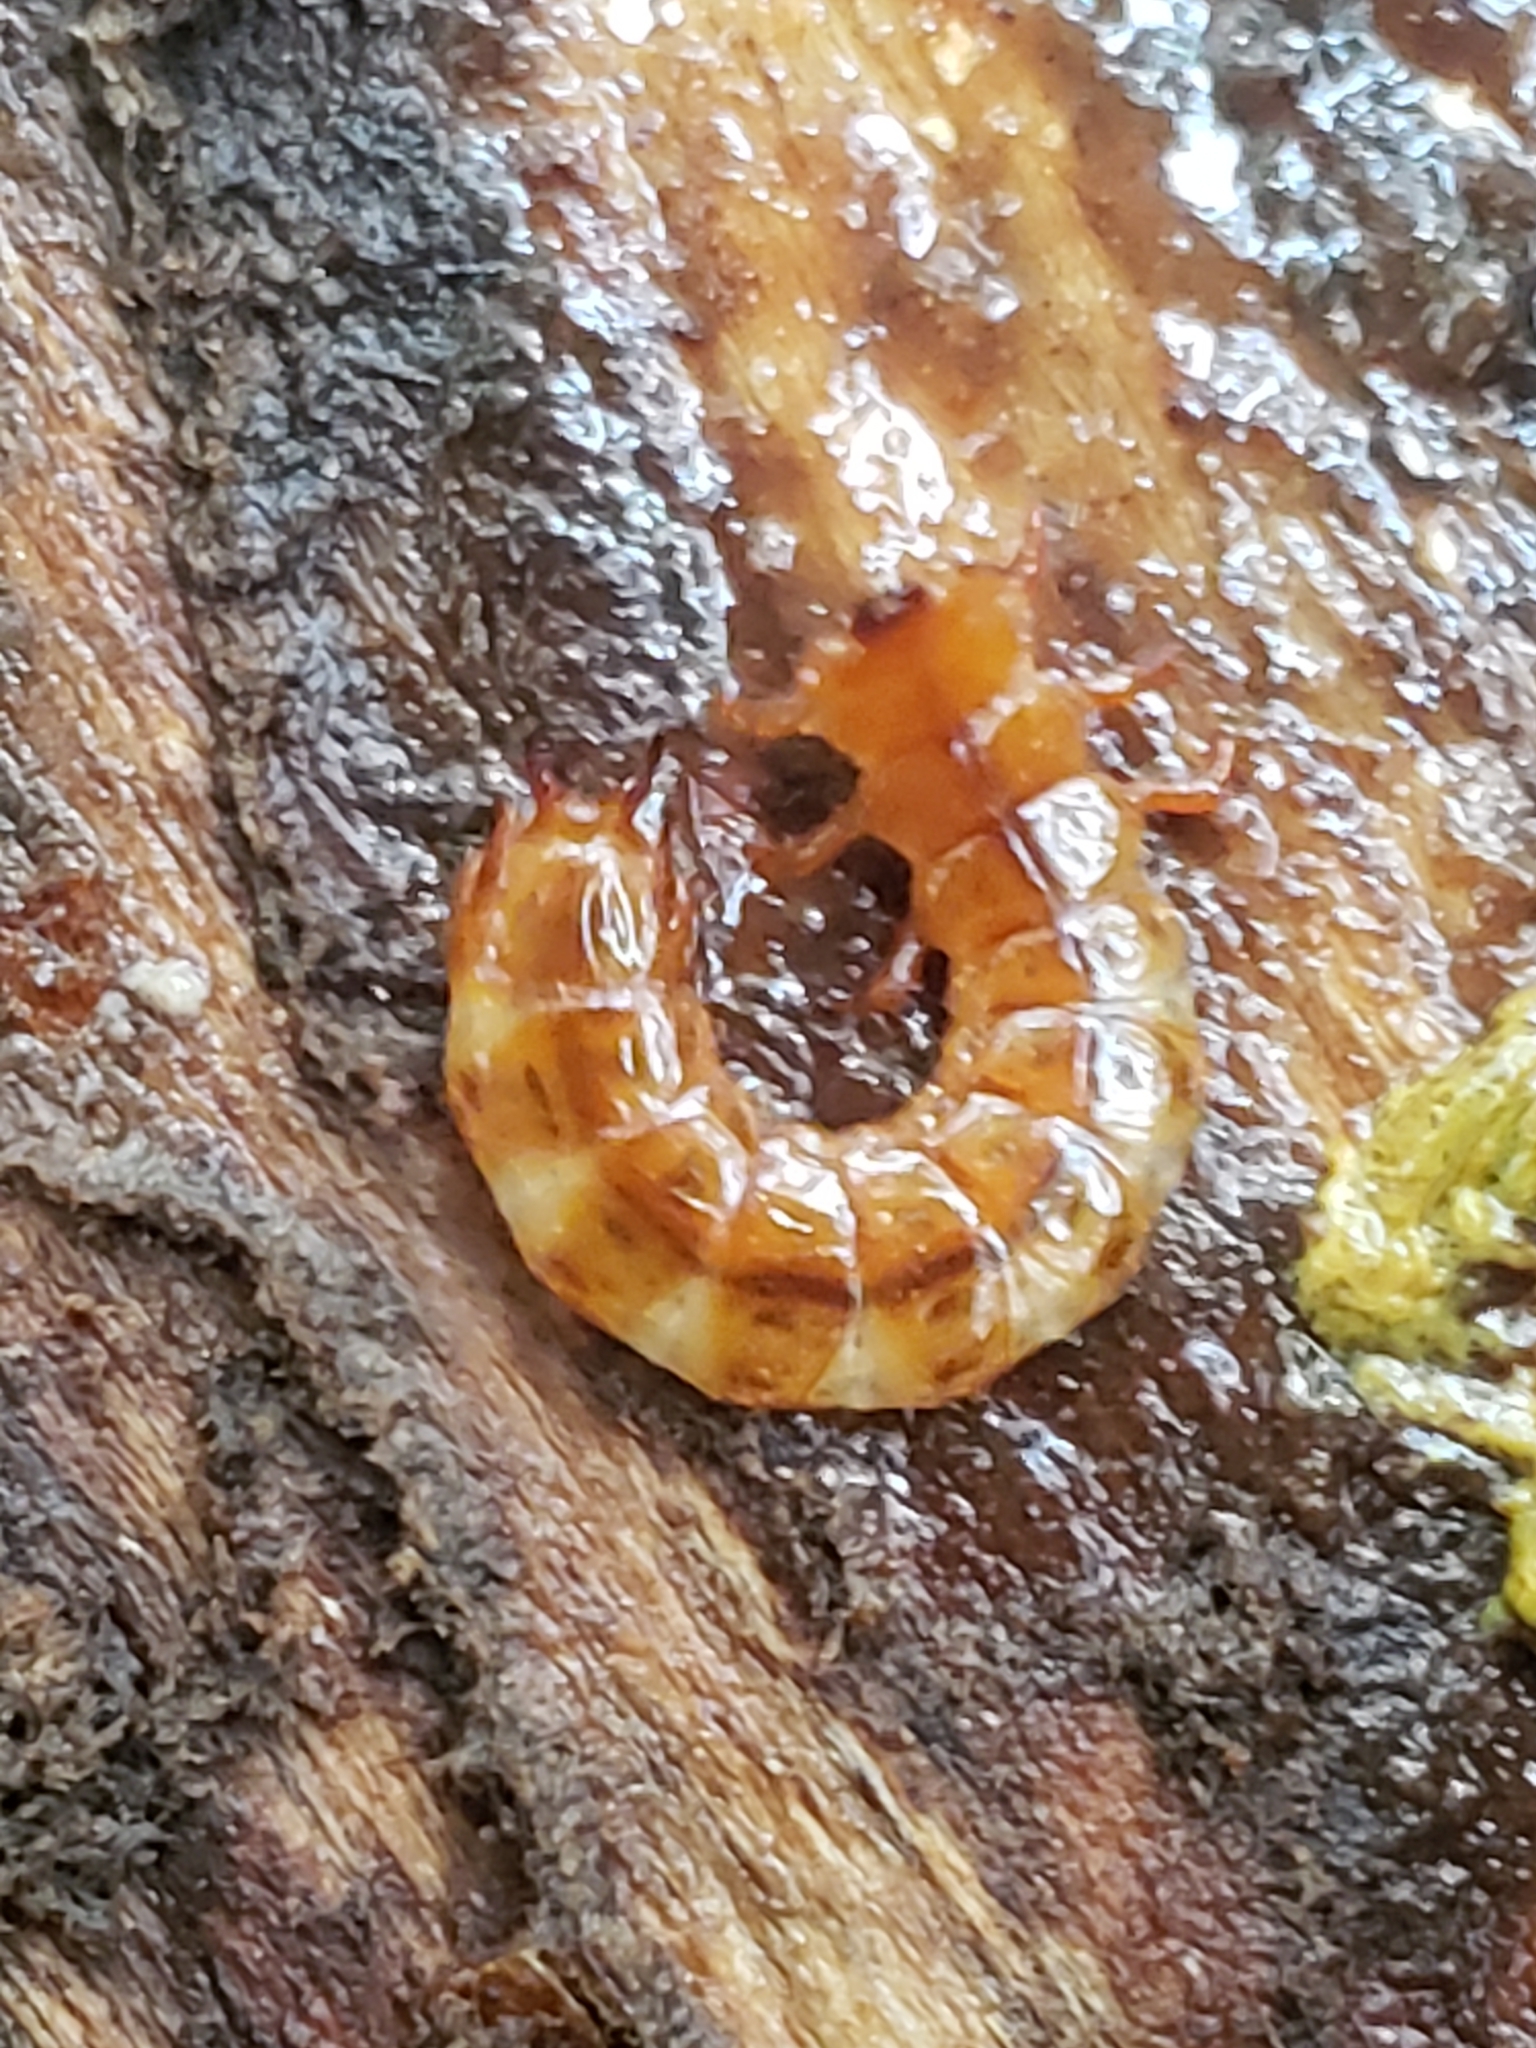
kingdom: Animalia
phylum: Arthropoda
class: Insecta
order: Coleoptera
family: Cucujidae
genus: Cucujus
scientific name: Cucujus clavipes
